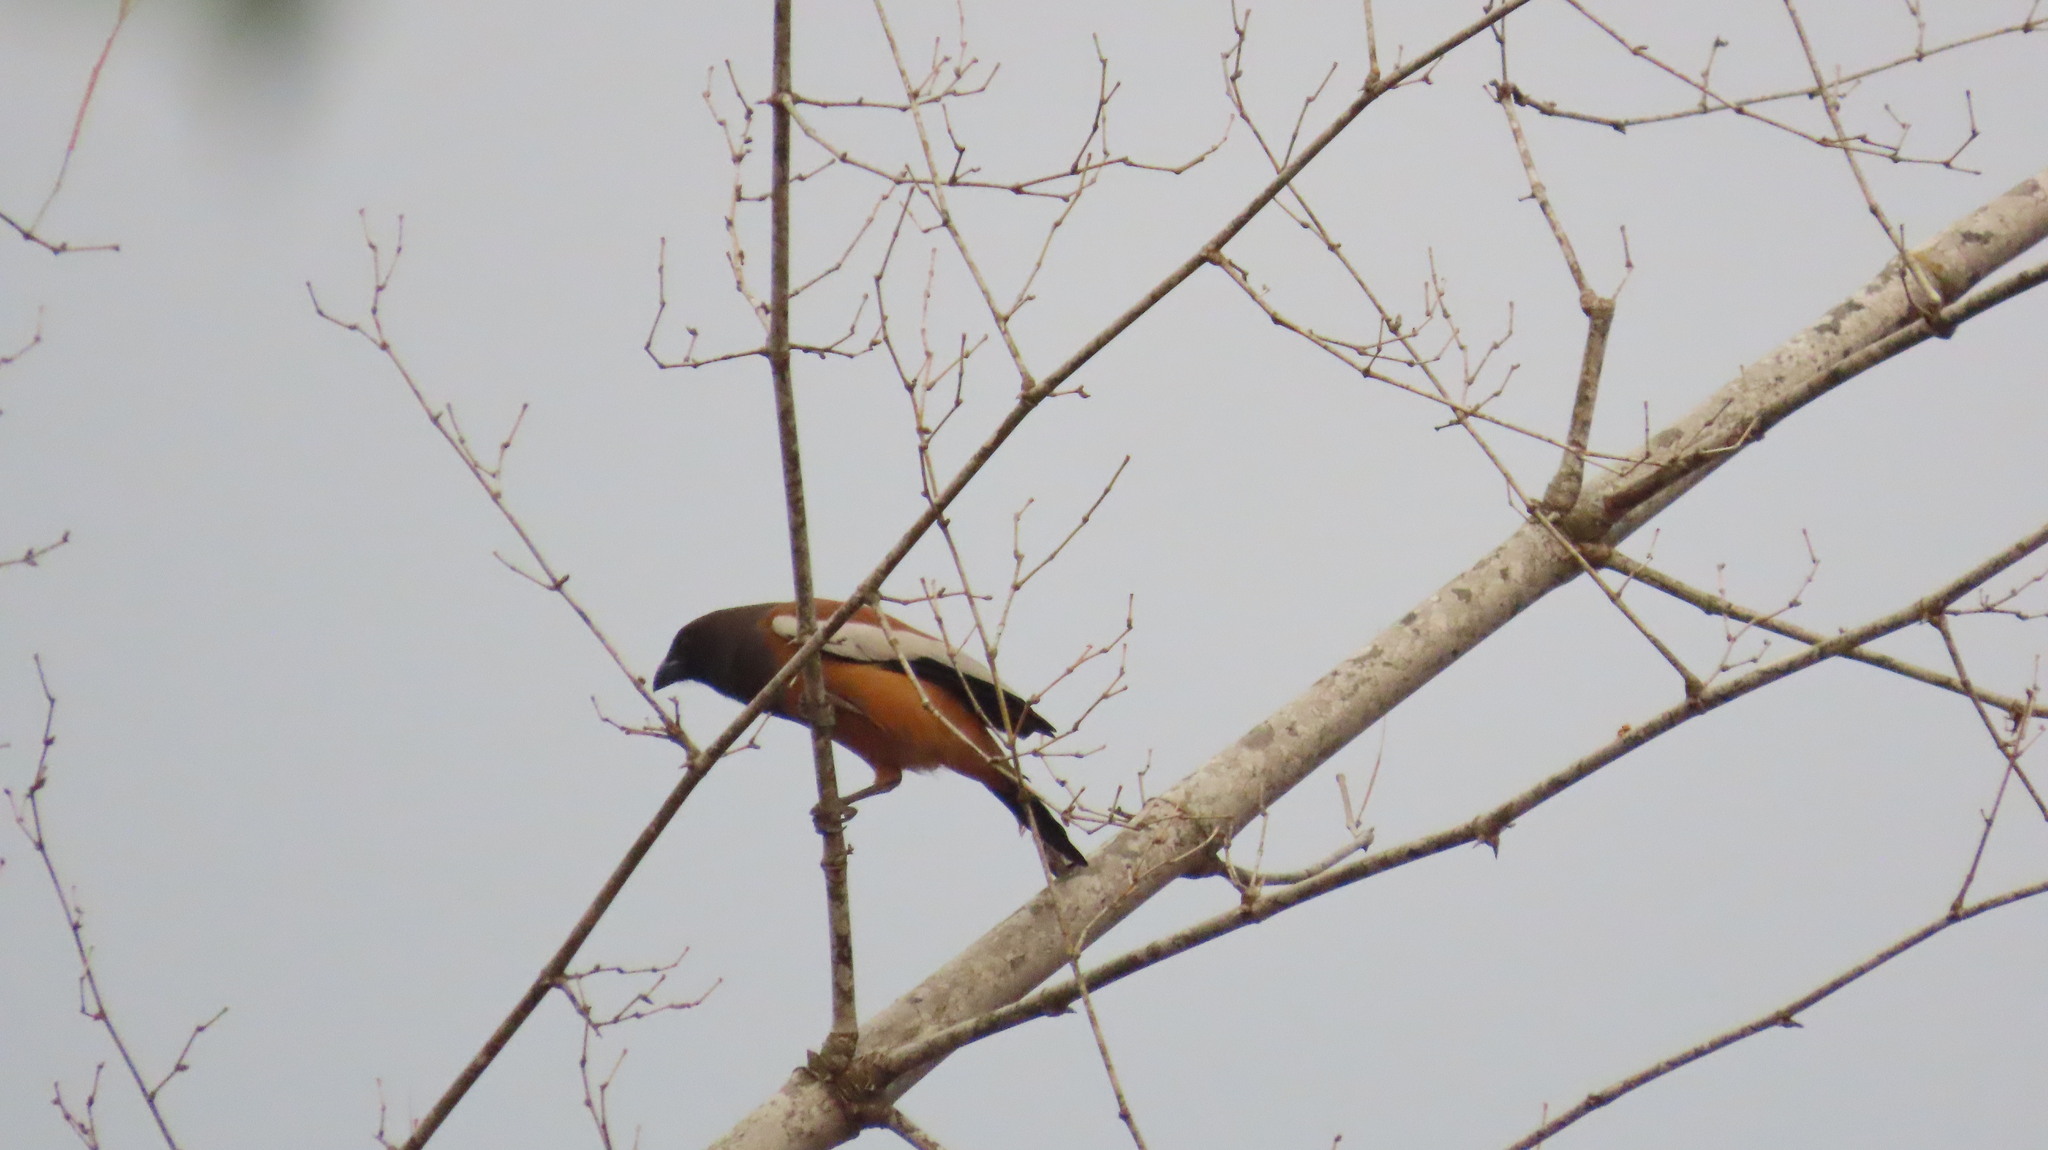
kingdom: Animalia
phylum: Chordata
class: Aves
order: Passeriformes
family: Corvidae
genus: Dendrocitta
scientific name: Dendrocitta vagabunda
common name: Rufous treepie
